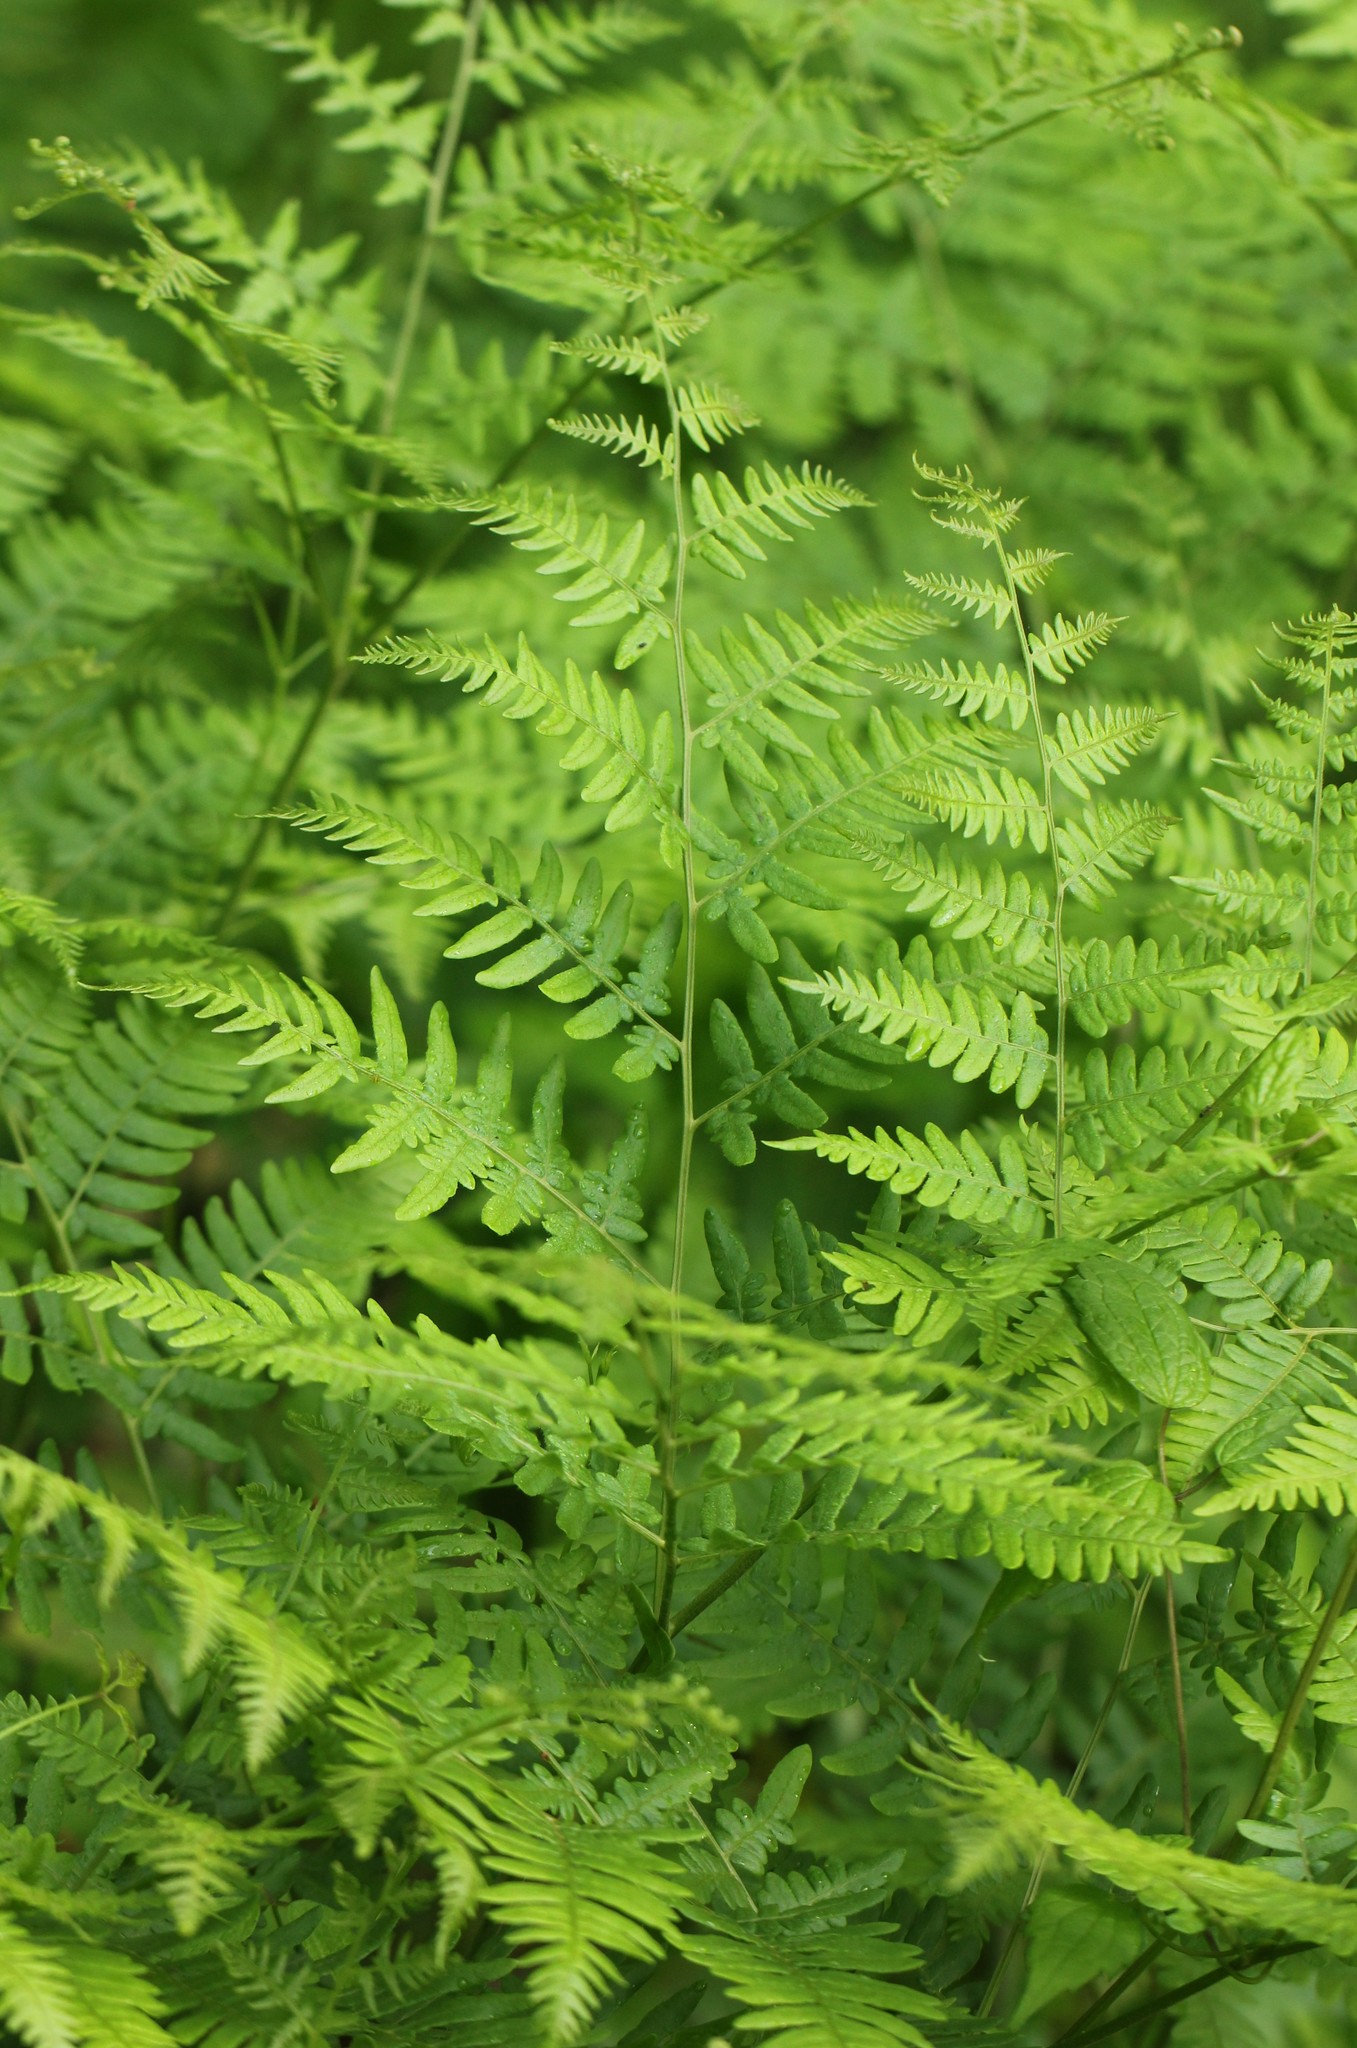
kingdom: Plantae
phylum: Tracheophyta
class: Polypodiopsida
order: Polypodiales
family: Dennstaedtiaceae
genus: Pteridium
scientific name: Pteridium aquilinum
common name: Bracken
